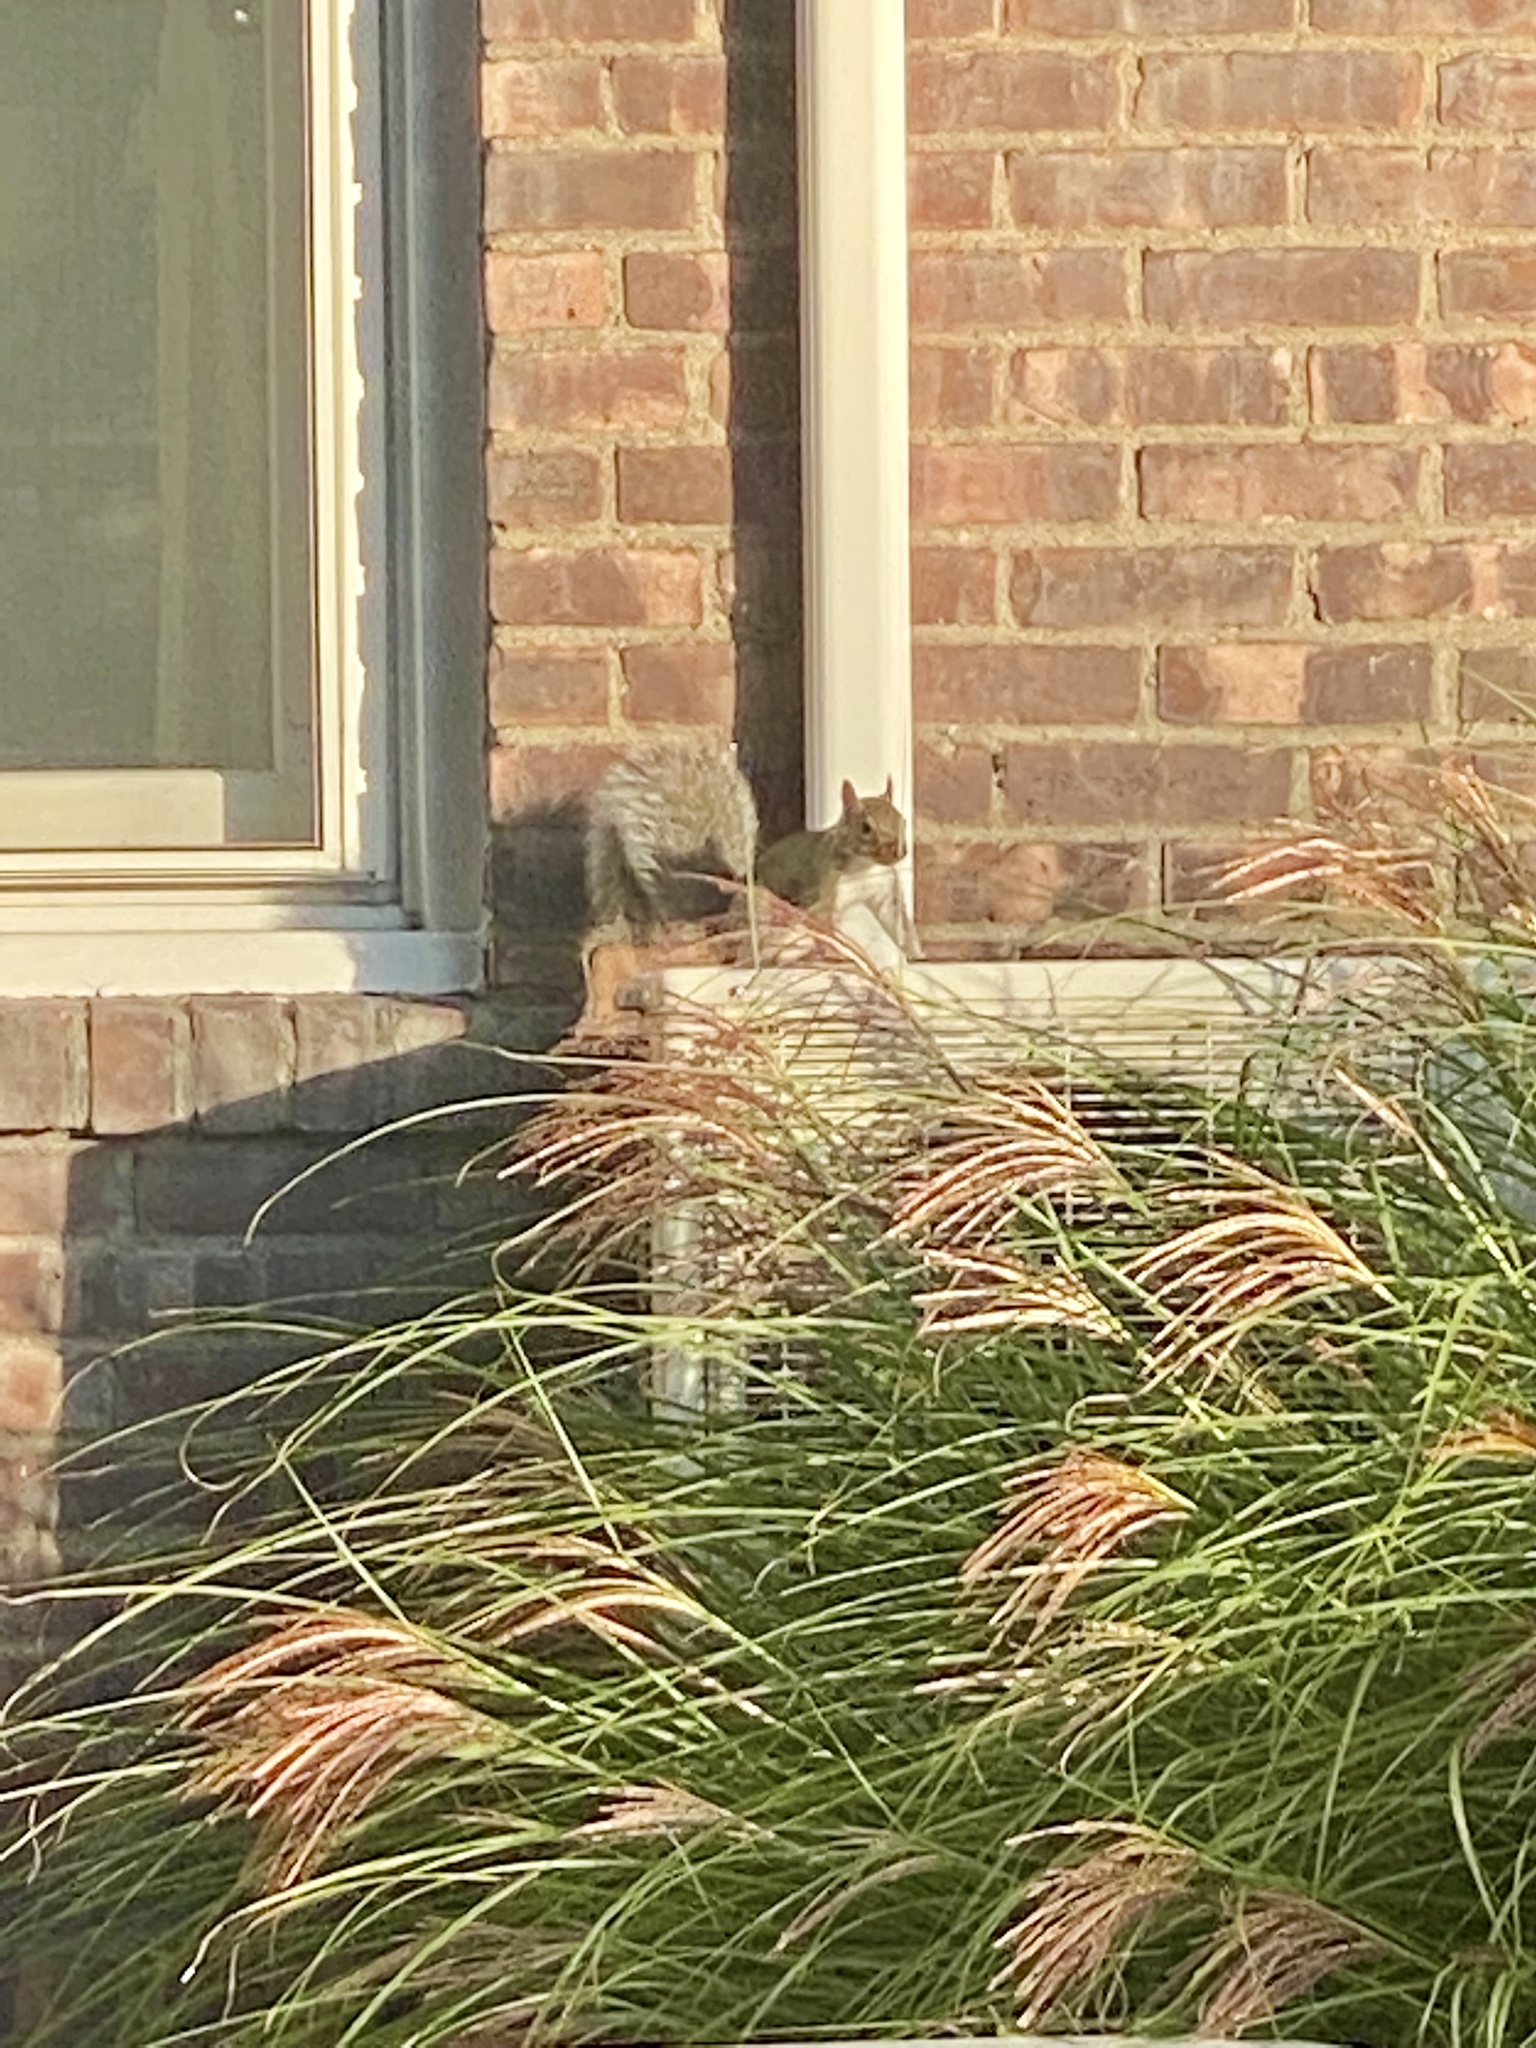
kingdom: Animalia
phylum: Chordata
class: Mammalia
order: Rodentia
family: Sciuridae
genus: Sciurus
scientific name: Sciurus carolinensis
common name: Eastern gray squirrel
